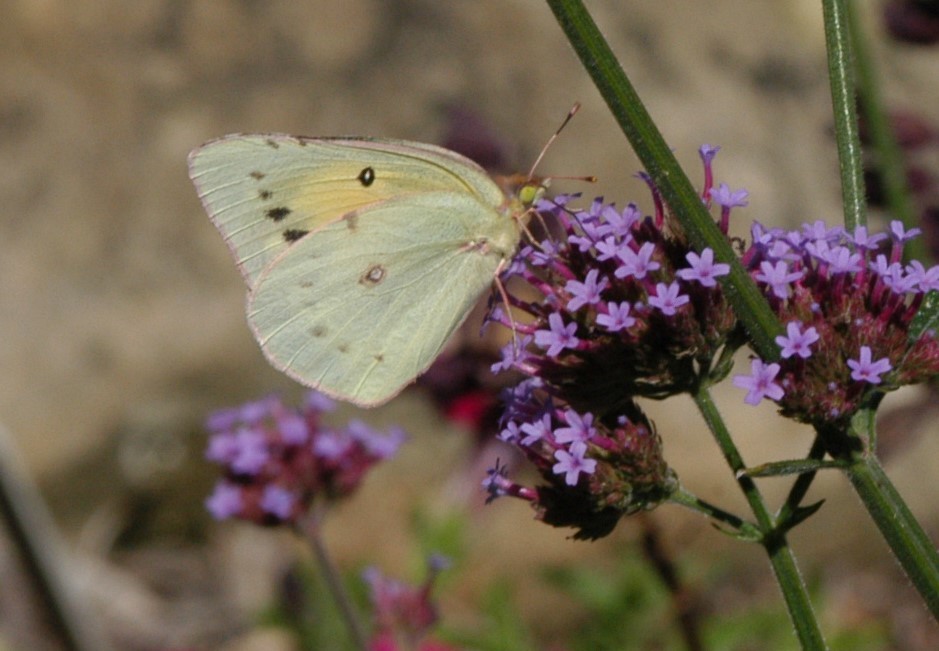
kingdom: Animalia
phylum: Arthropoda
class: Insecta
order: Lepidoptera
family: Pieridae
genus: Colias
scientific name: Colias eurytheme
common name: Alfalfa butterfly
